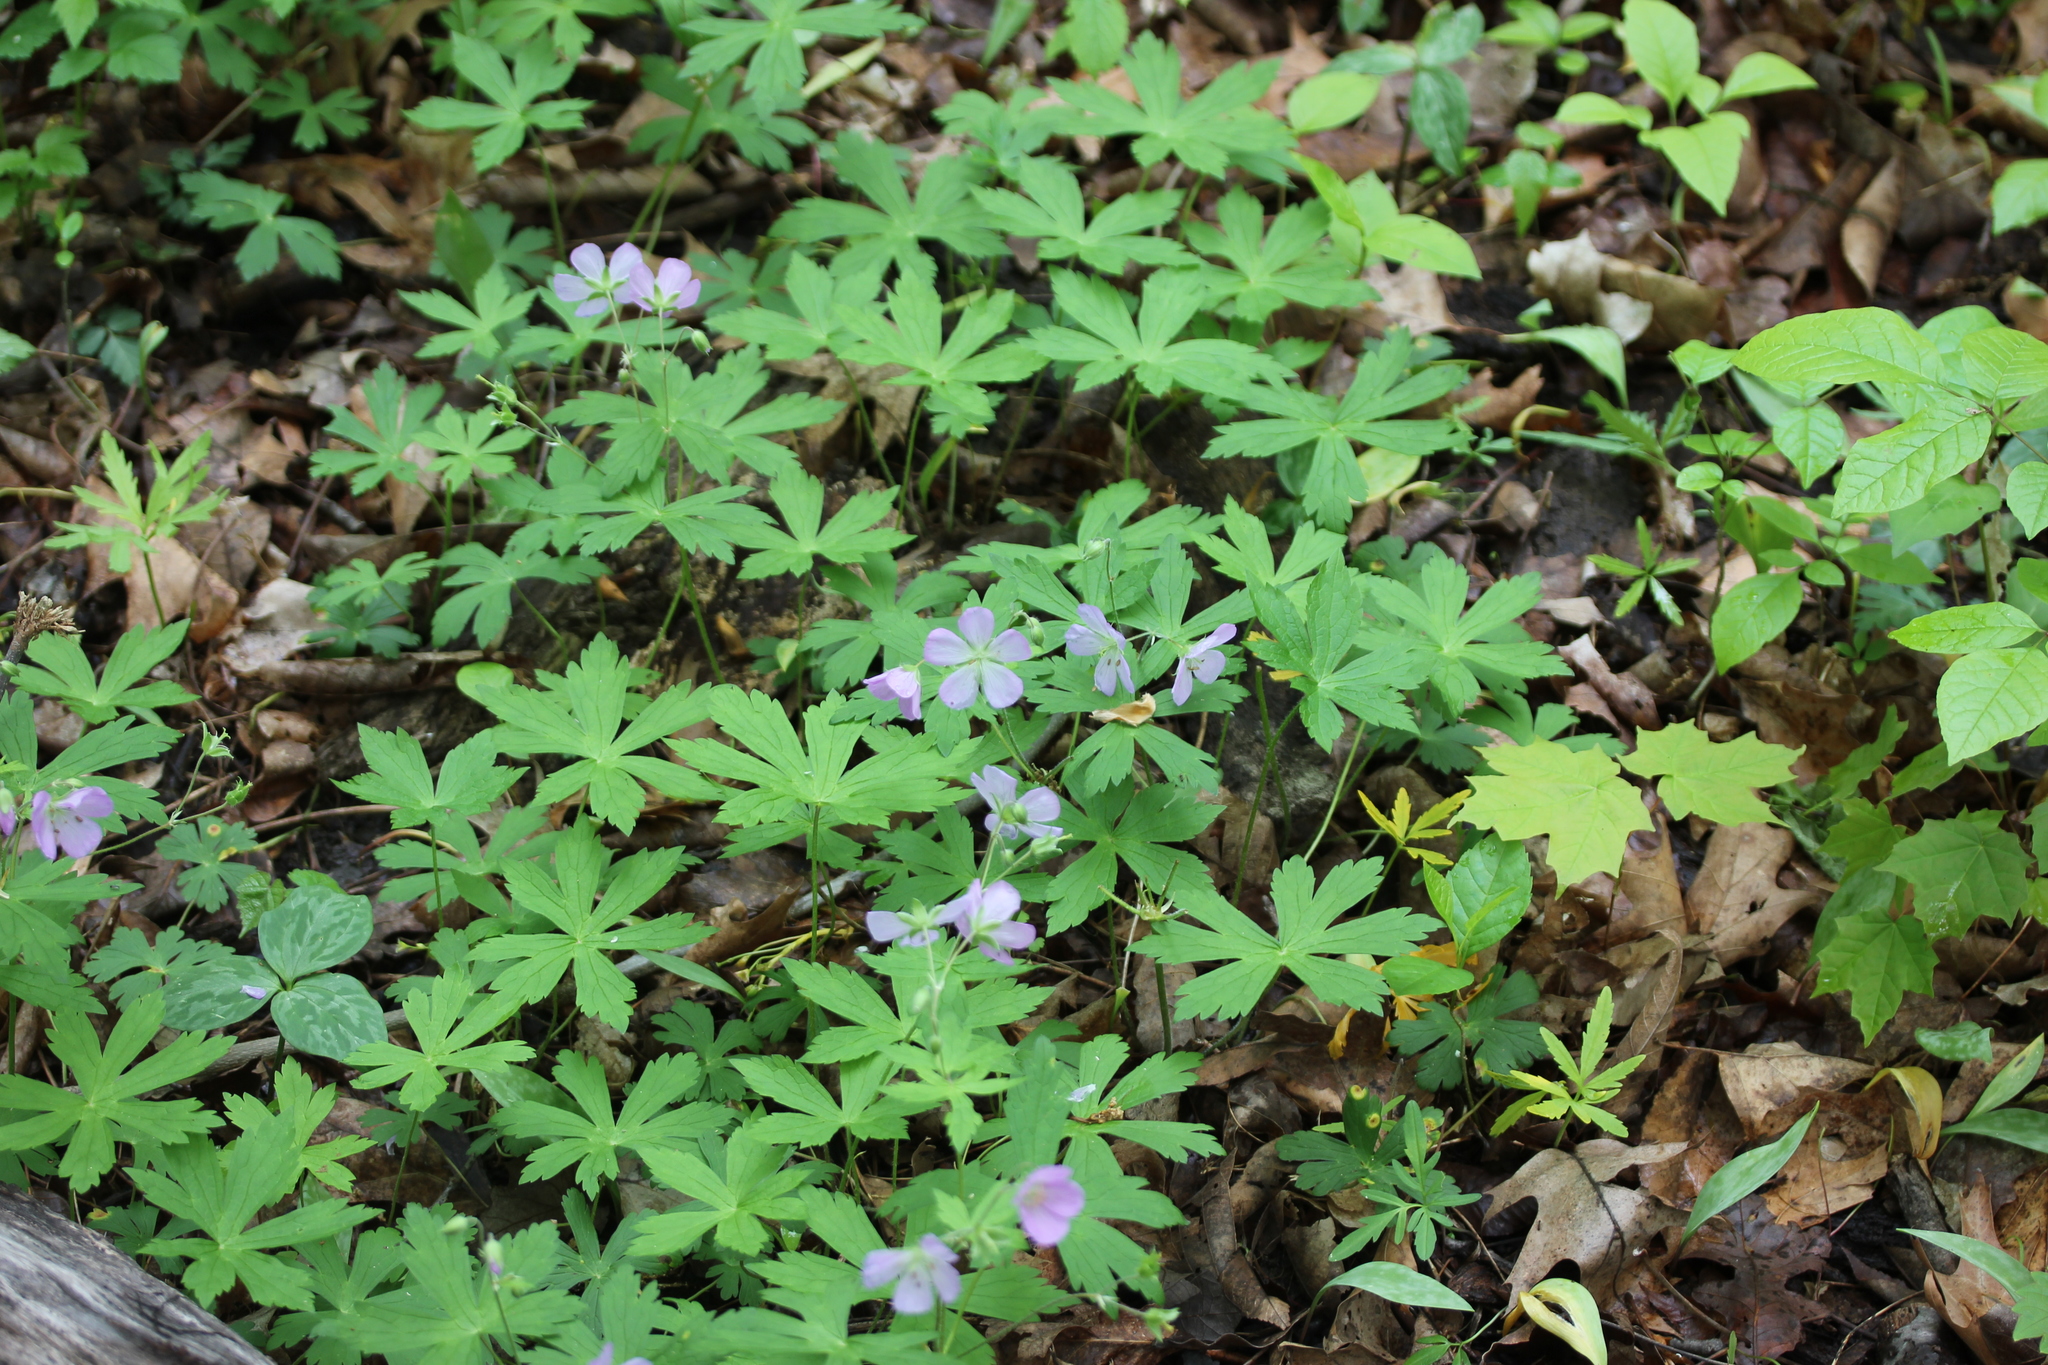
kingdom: Plantae
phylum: Tracheophyta
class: Magnoliopsida
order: Geraniales
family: Geraniaceae
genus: Geranium
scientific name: Geranium maculatum
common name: Spotted geranium
